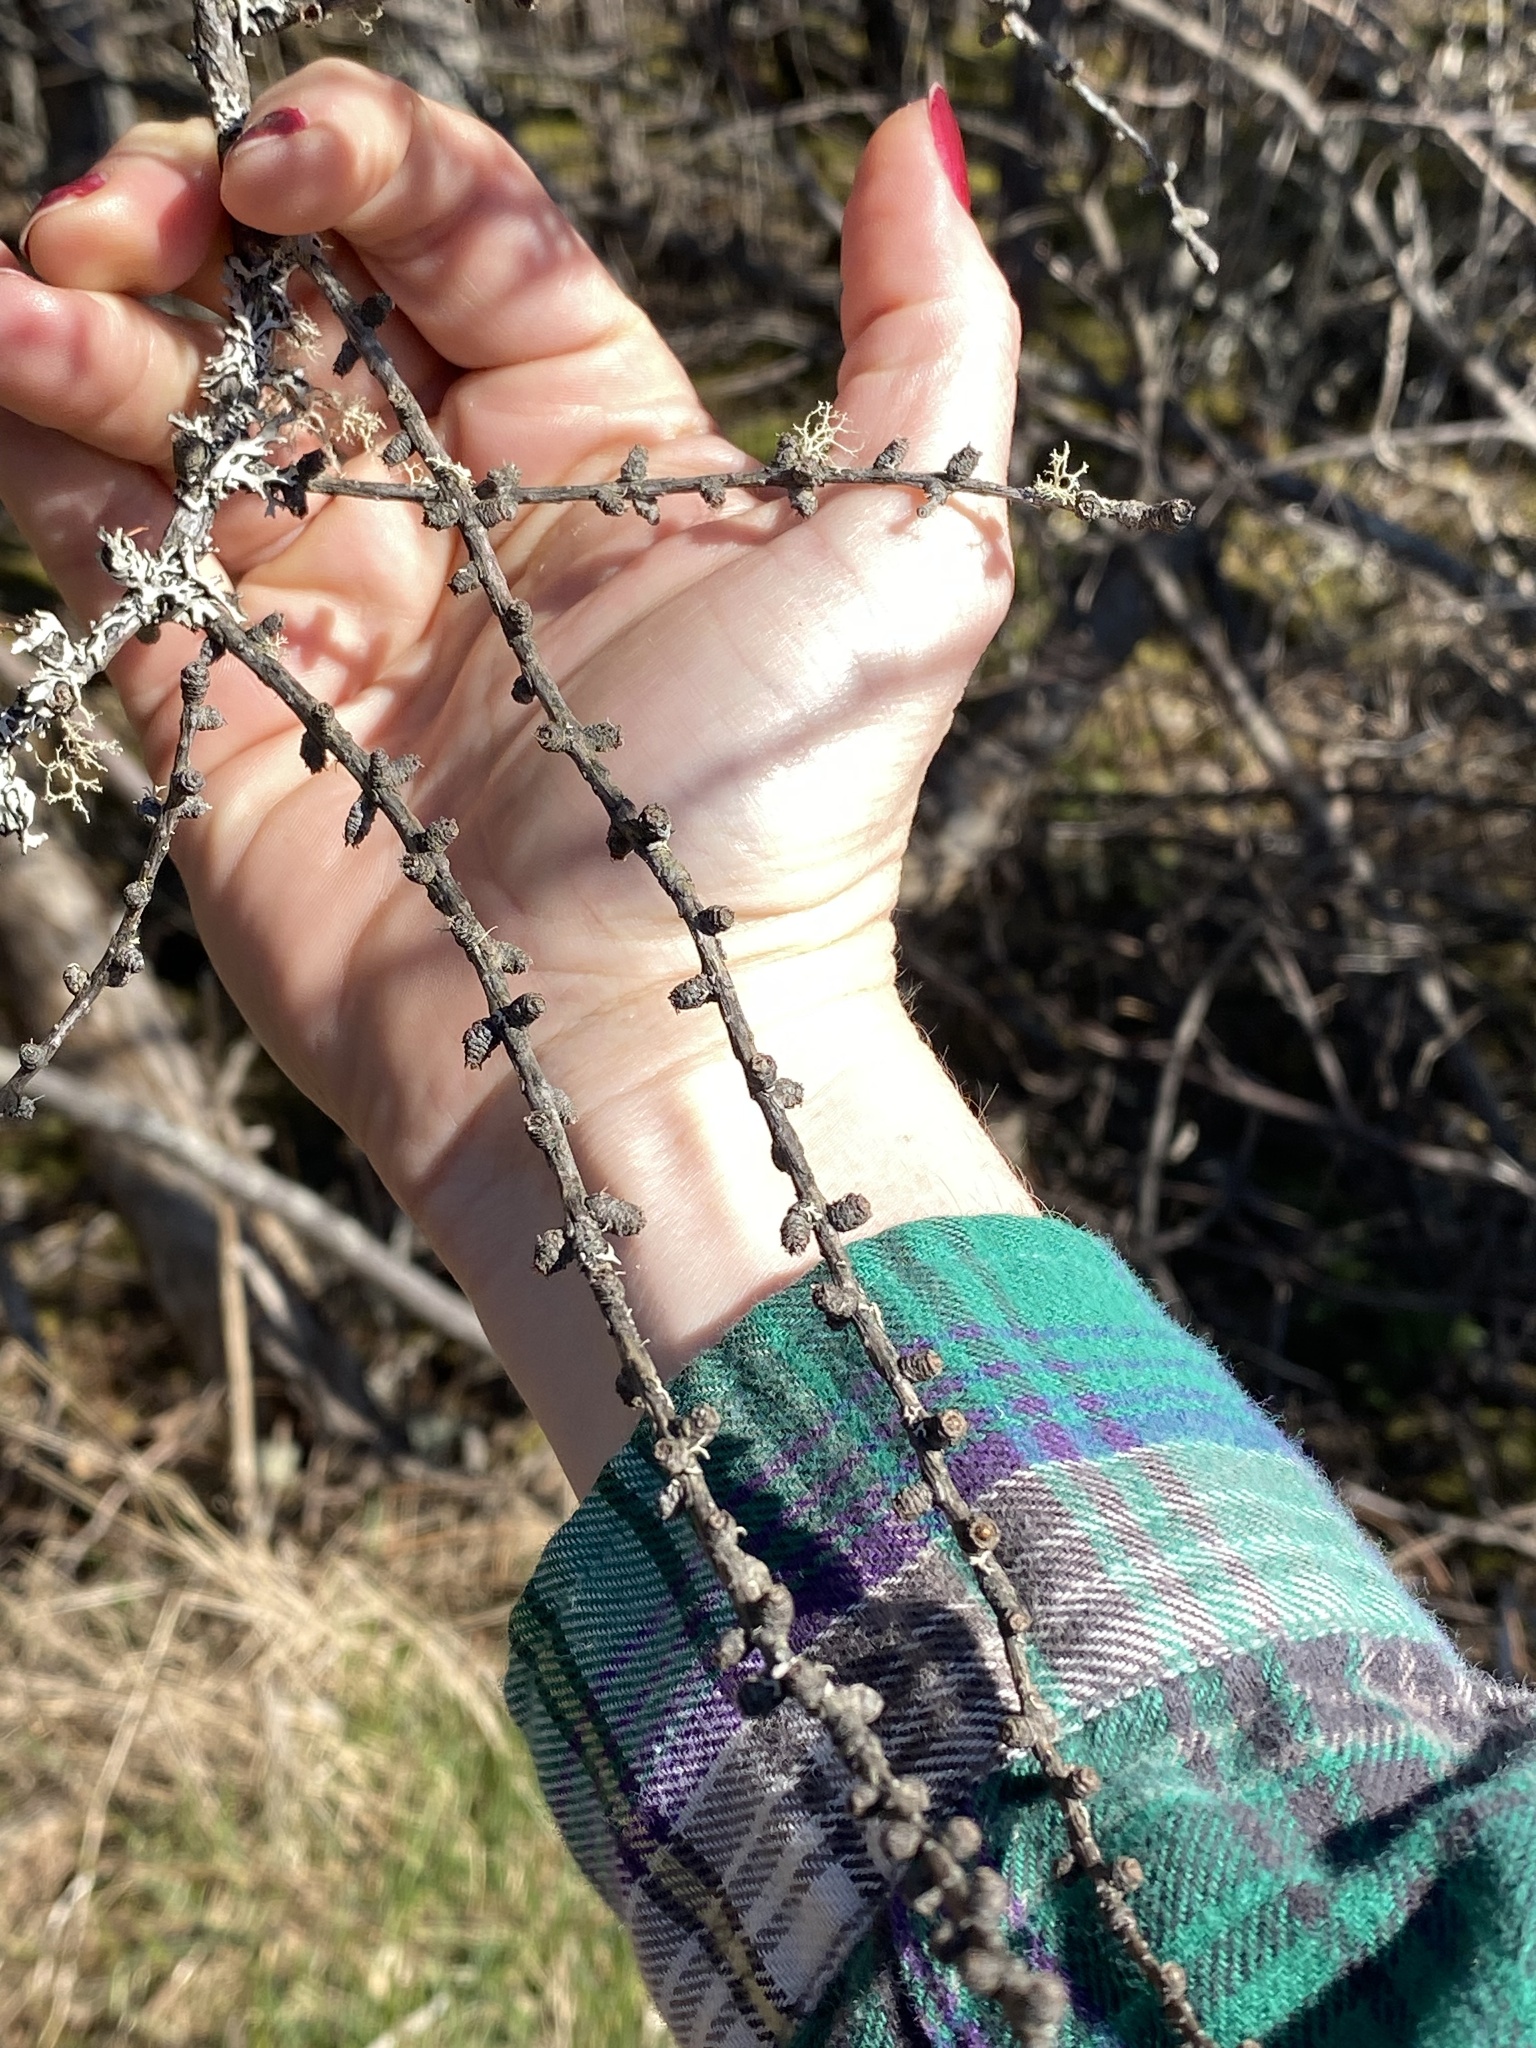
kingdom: Plantae
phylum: Tracheophyta
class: Pinopsida
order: Pinales
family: Pinaceae
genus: Larix
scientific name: Larix laricina
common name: American larch
